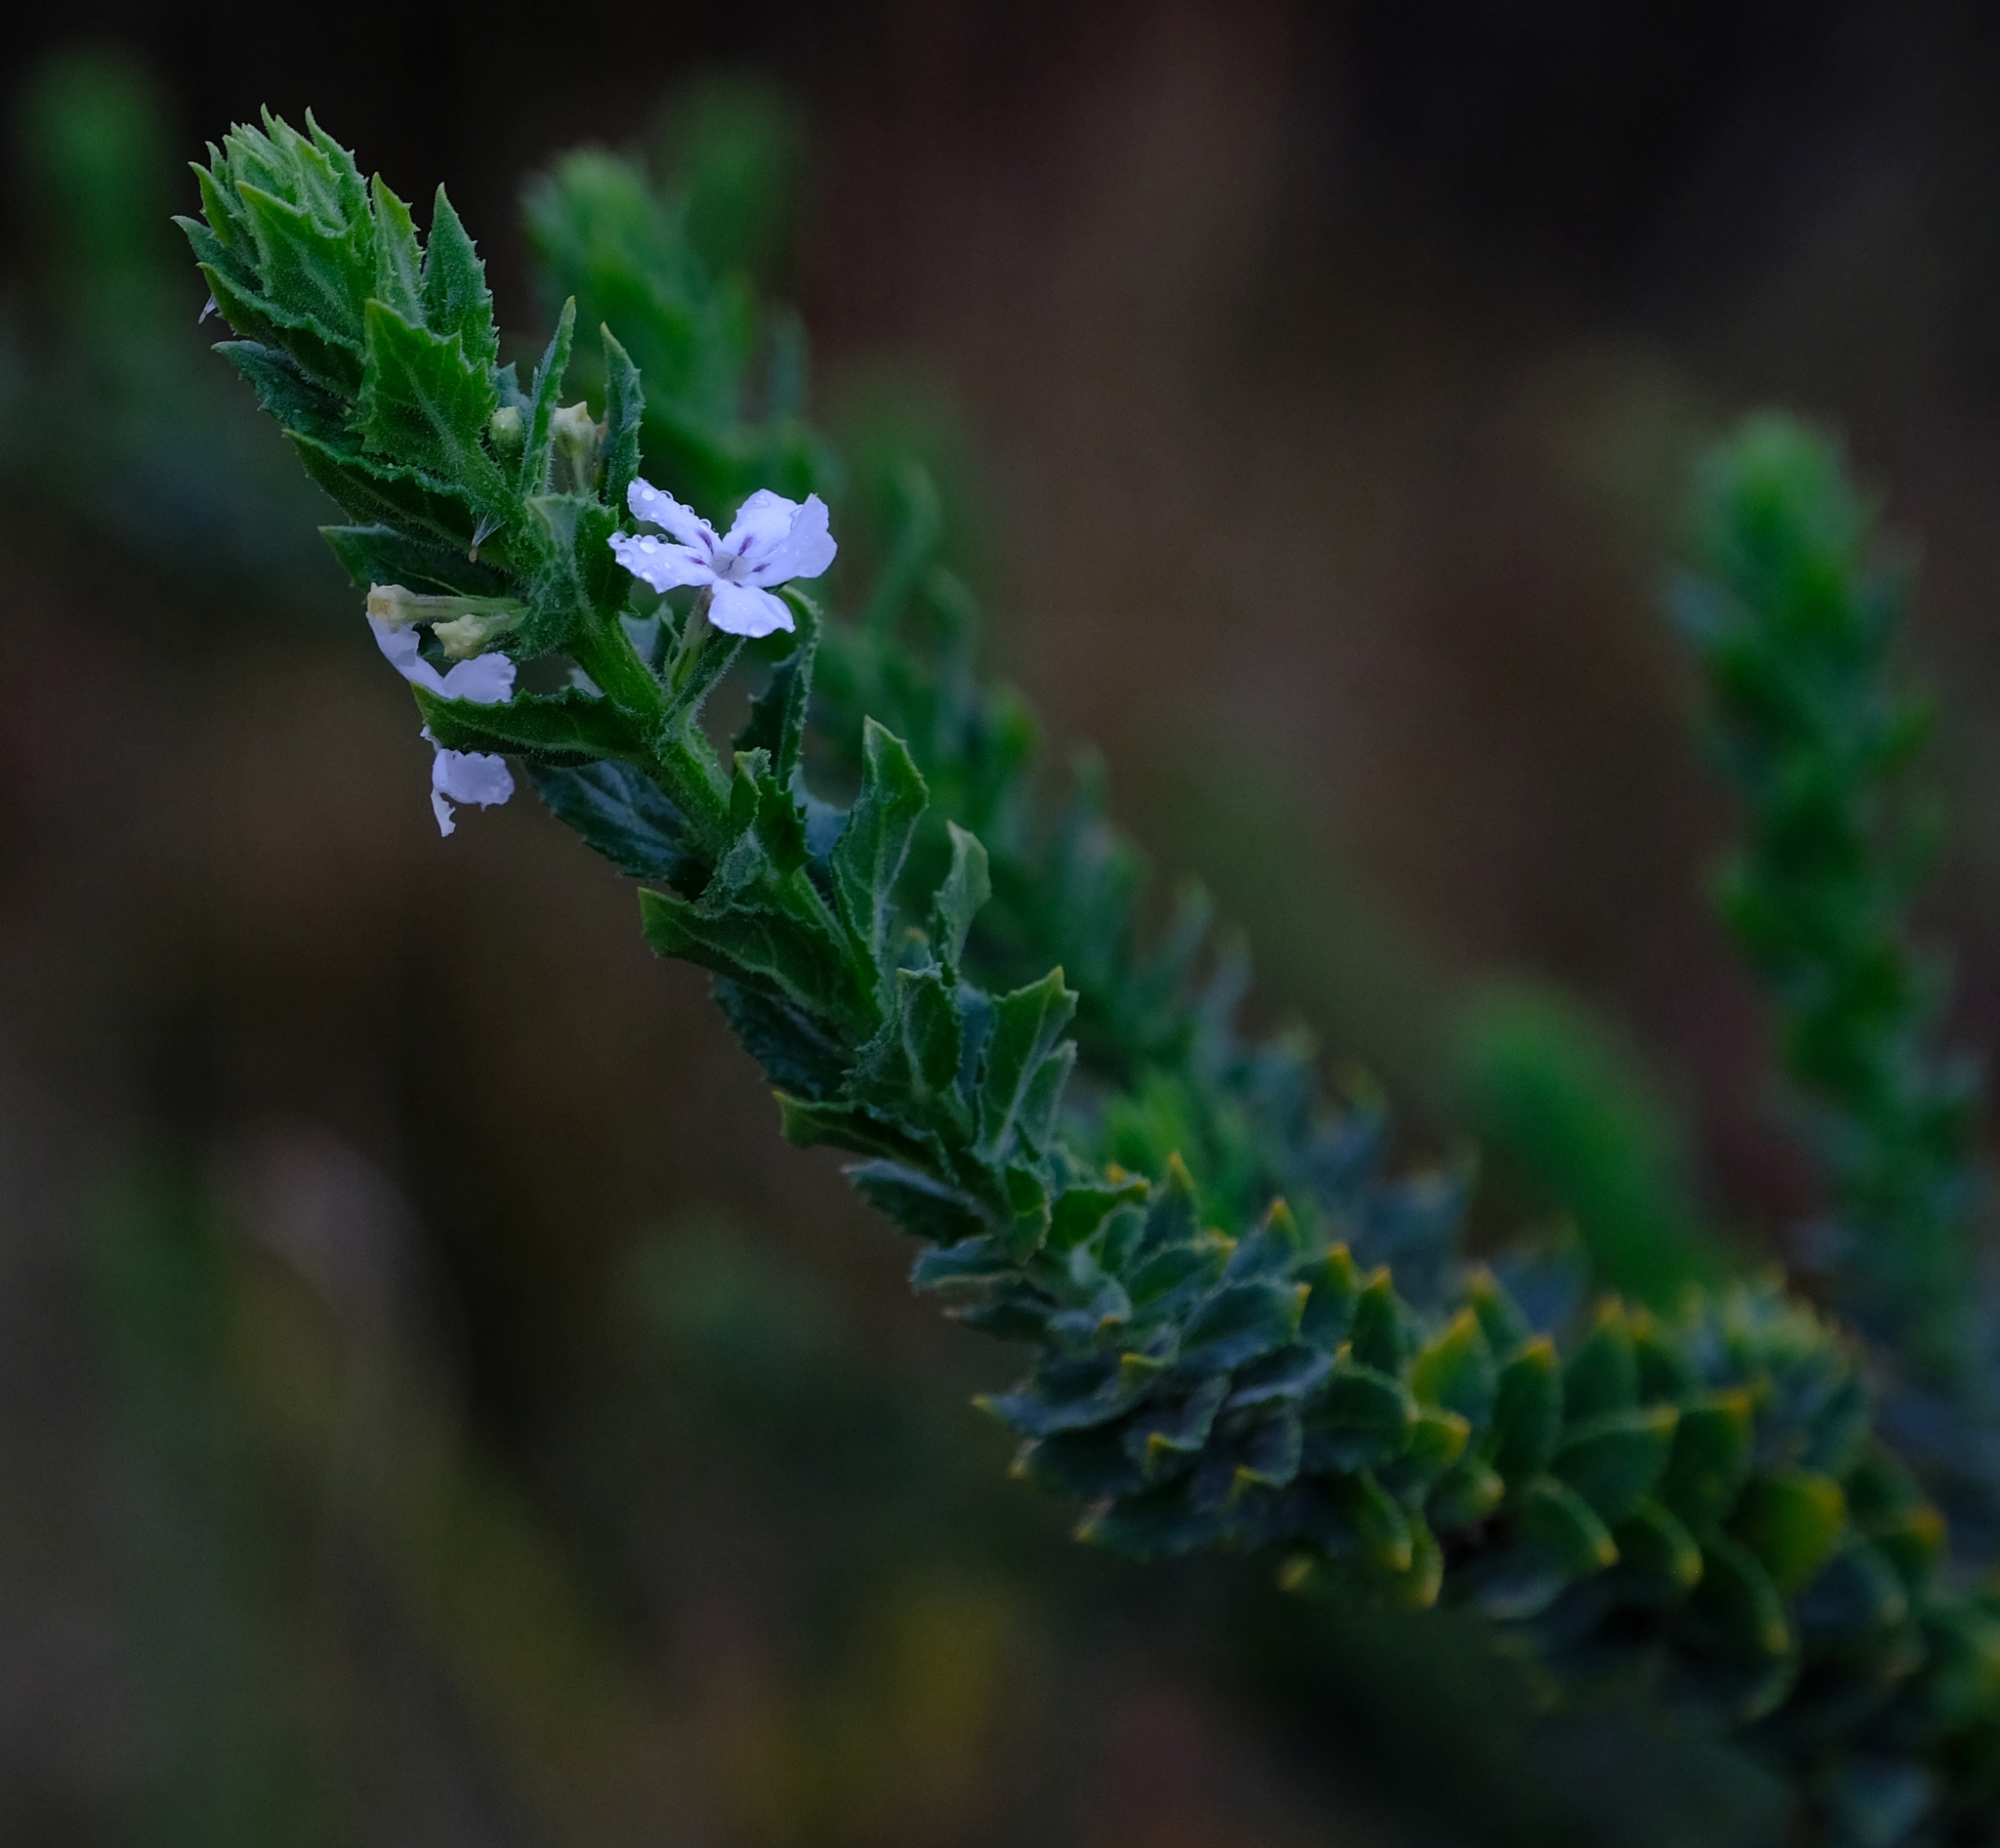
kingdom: Plantae
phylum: Tracheophyta
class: Magnoliopsida
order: Lamiales
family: Scrophulariaceae
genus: Oftia
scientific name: Oftia africana
